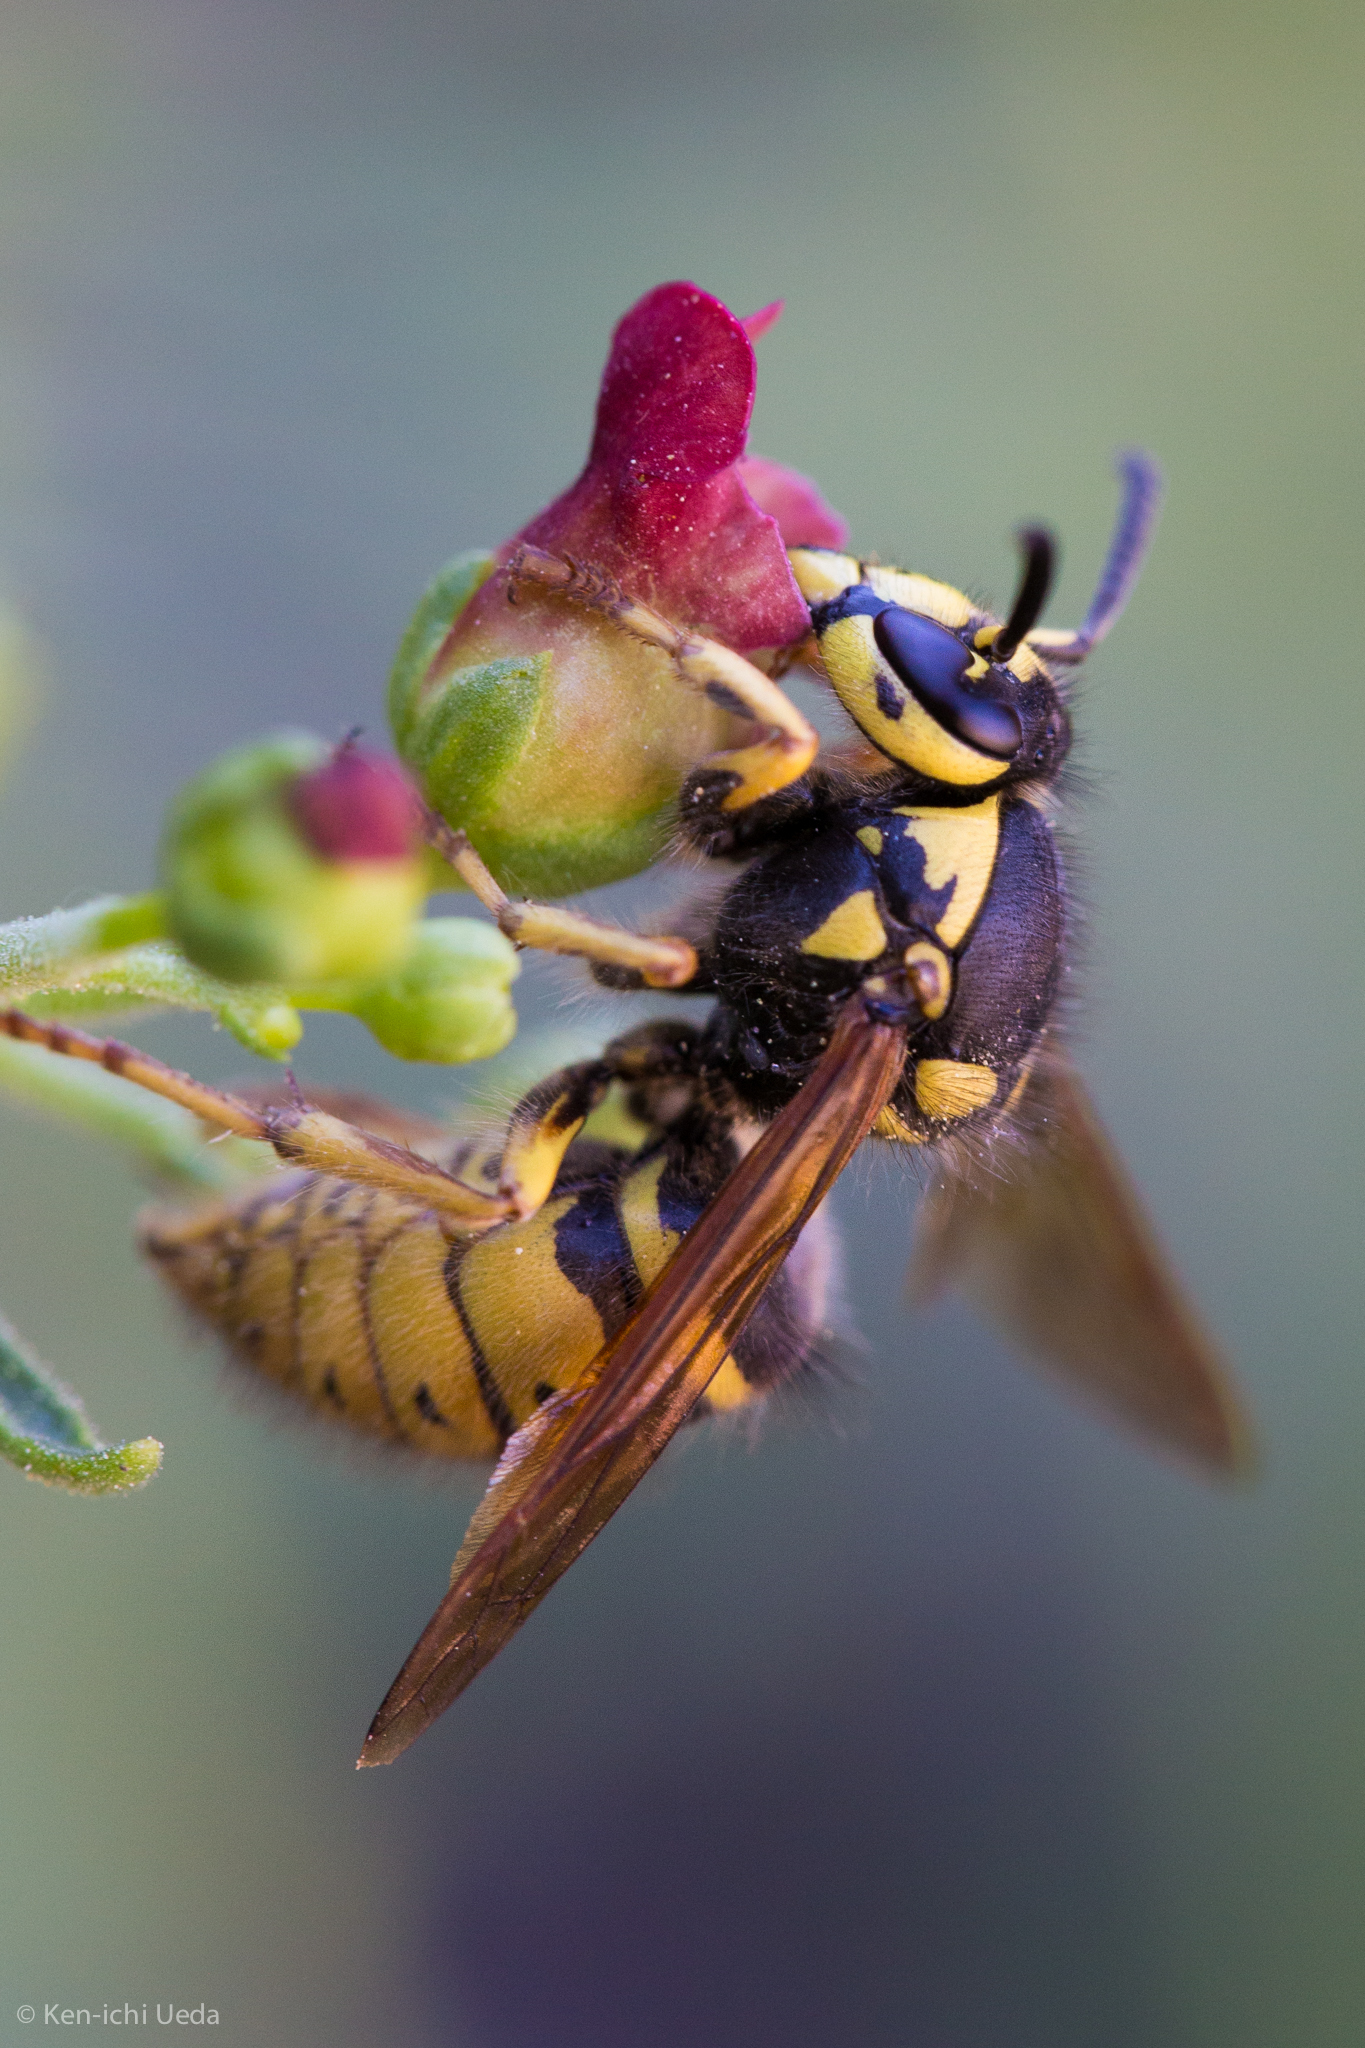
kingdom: Animalia
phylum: Arthropoda
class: Insecta
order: Hymenoptera
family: Vespidae
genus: Dolichovespula
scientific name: Dolichovespula adulterina
